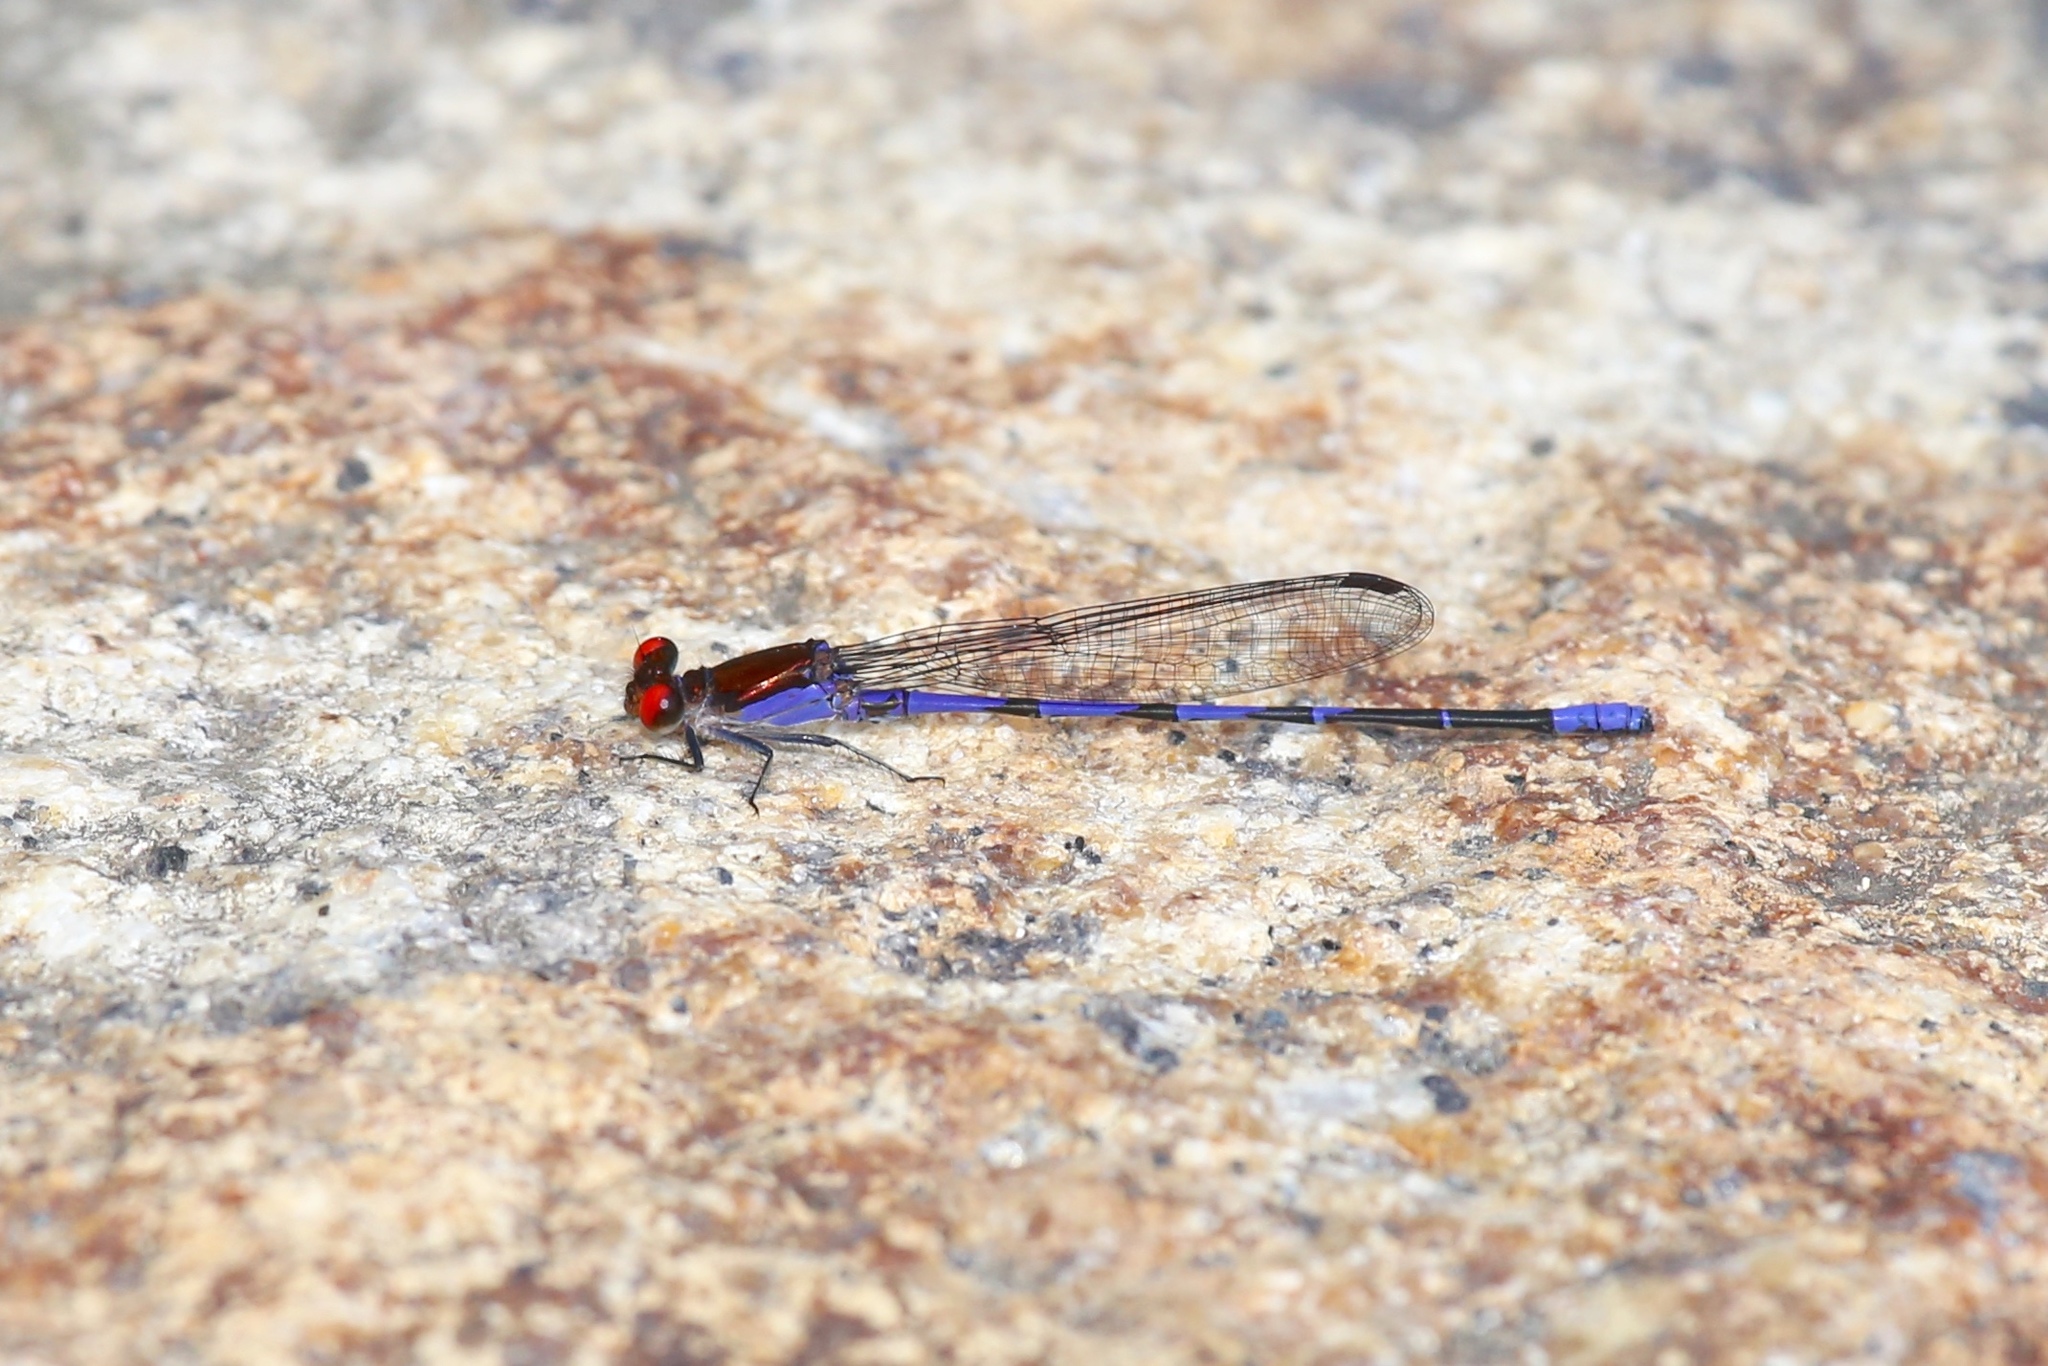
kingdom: Animalia
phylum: Arthropoda
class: Insecta
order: Odonata
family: Coenagrionidae
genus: Argia
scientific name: Argia oenea
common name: Fiery-eyed dancer
